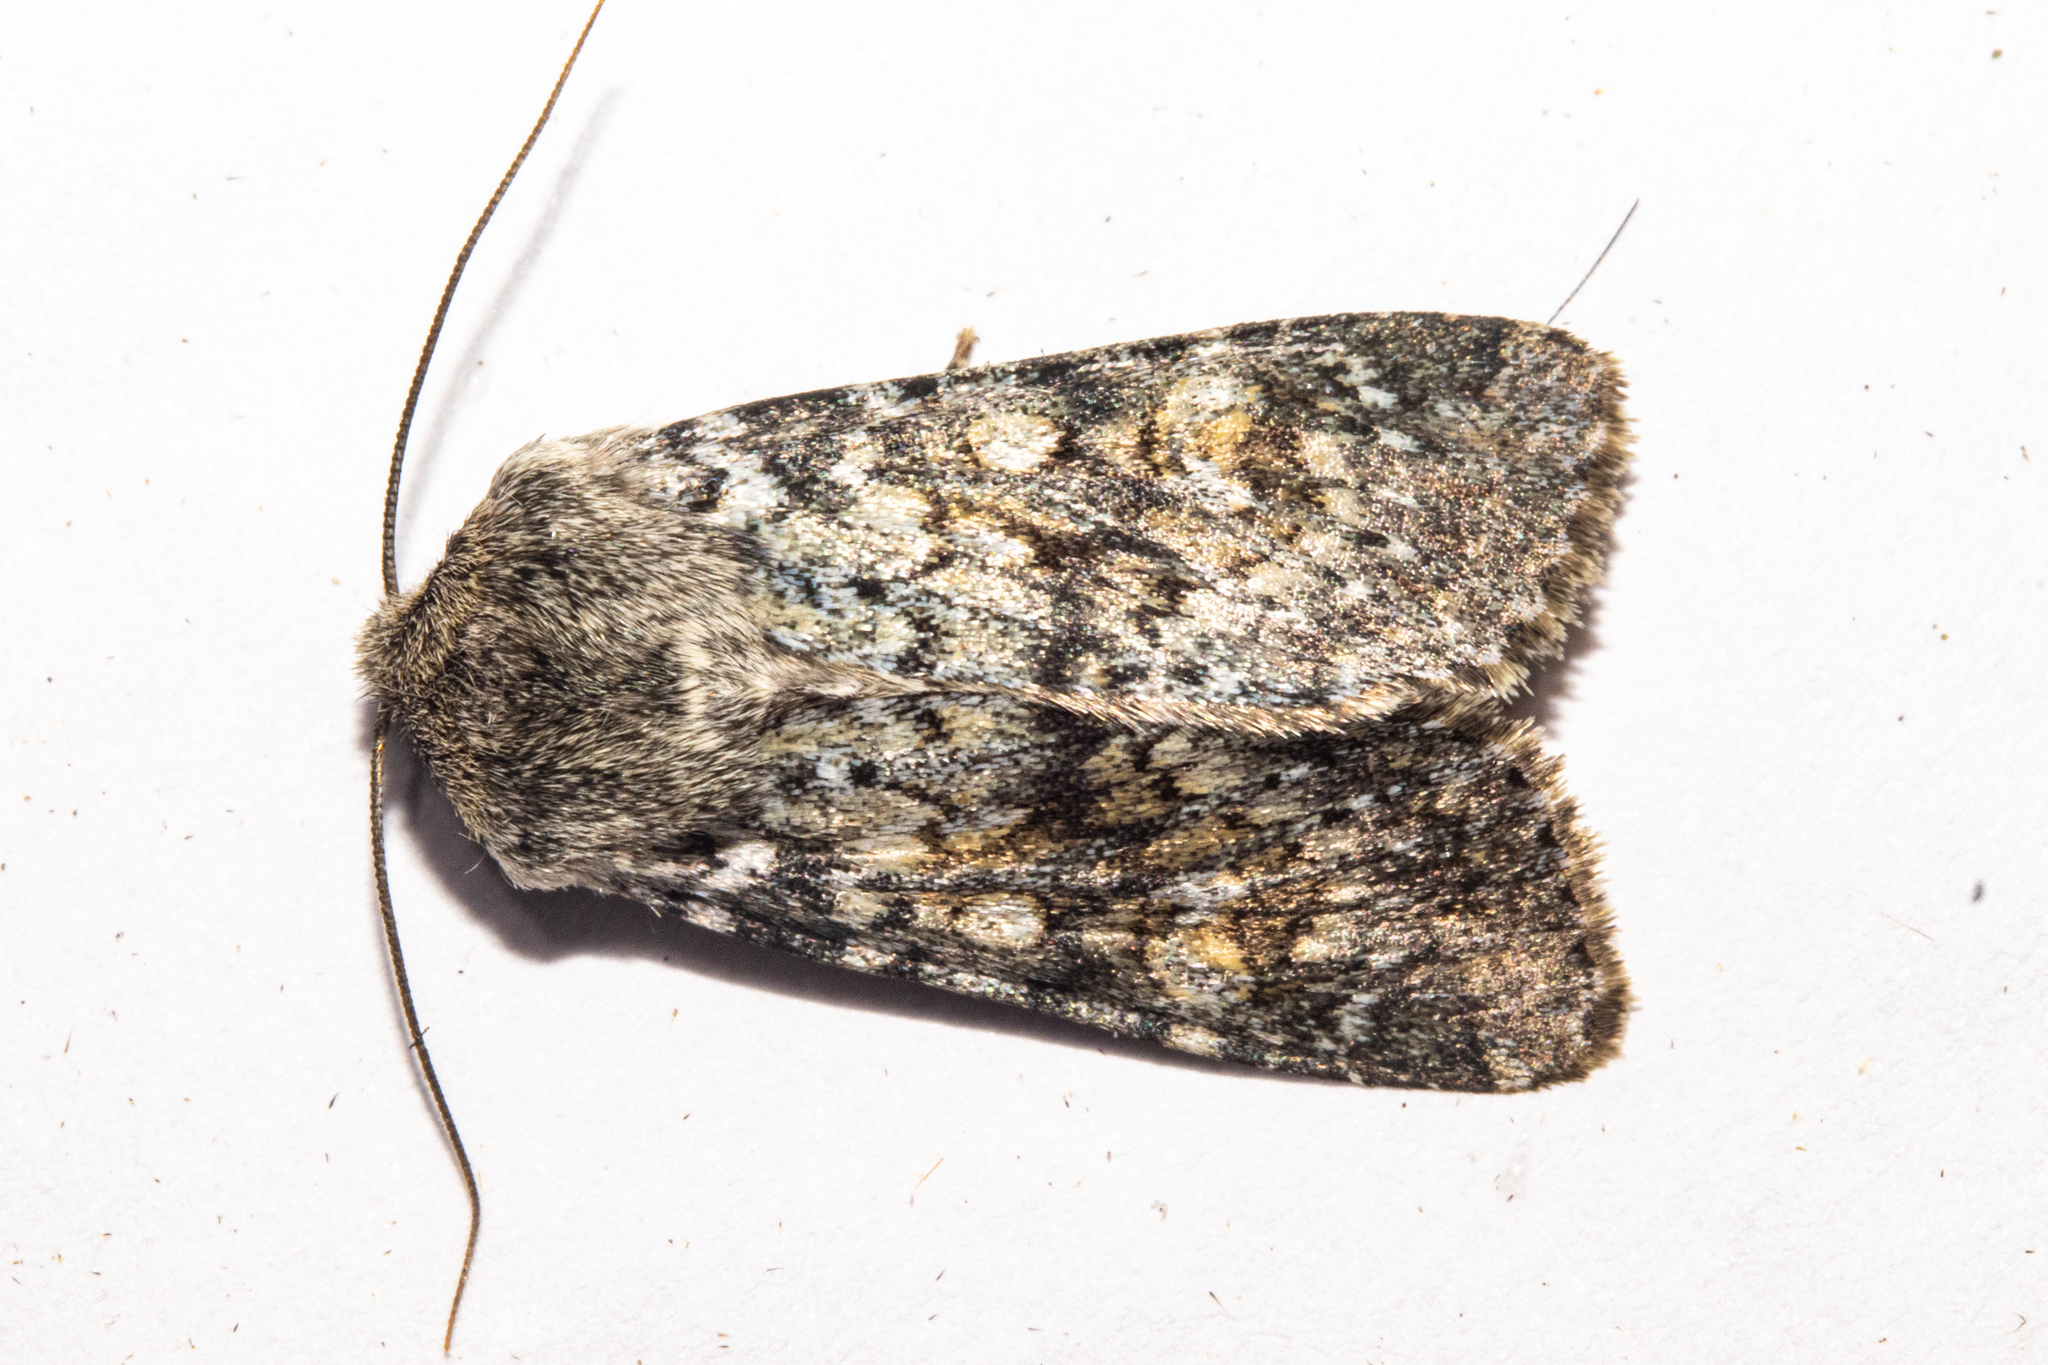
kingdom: Animalia
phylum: Arthropoda
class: Insecta
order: Lepidoptera
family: Noctuidae
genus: Ichneutica
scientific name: Ichneutica
